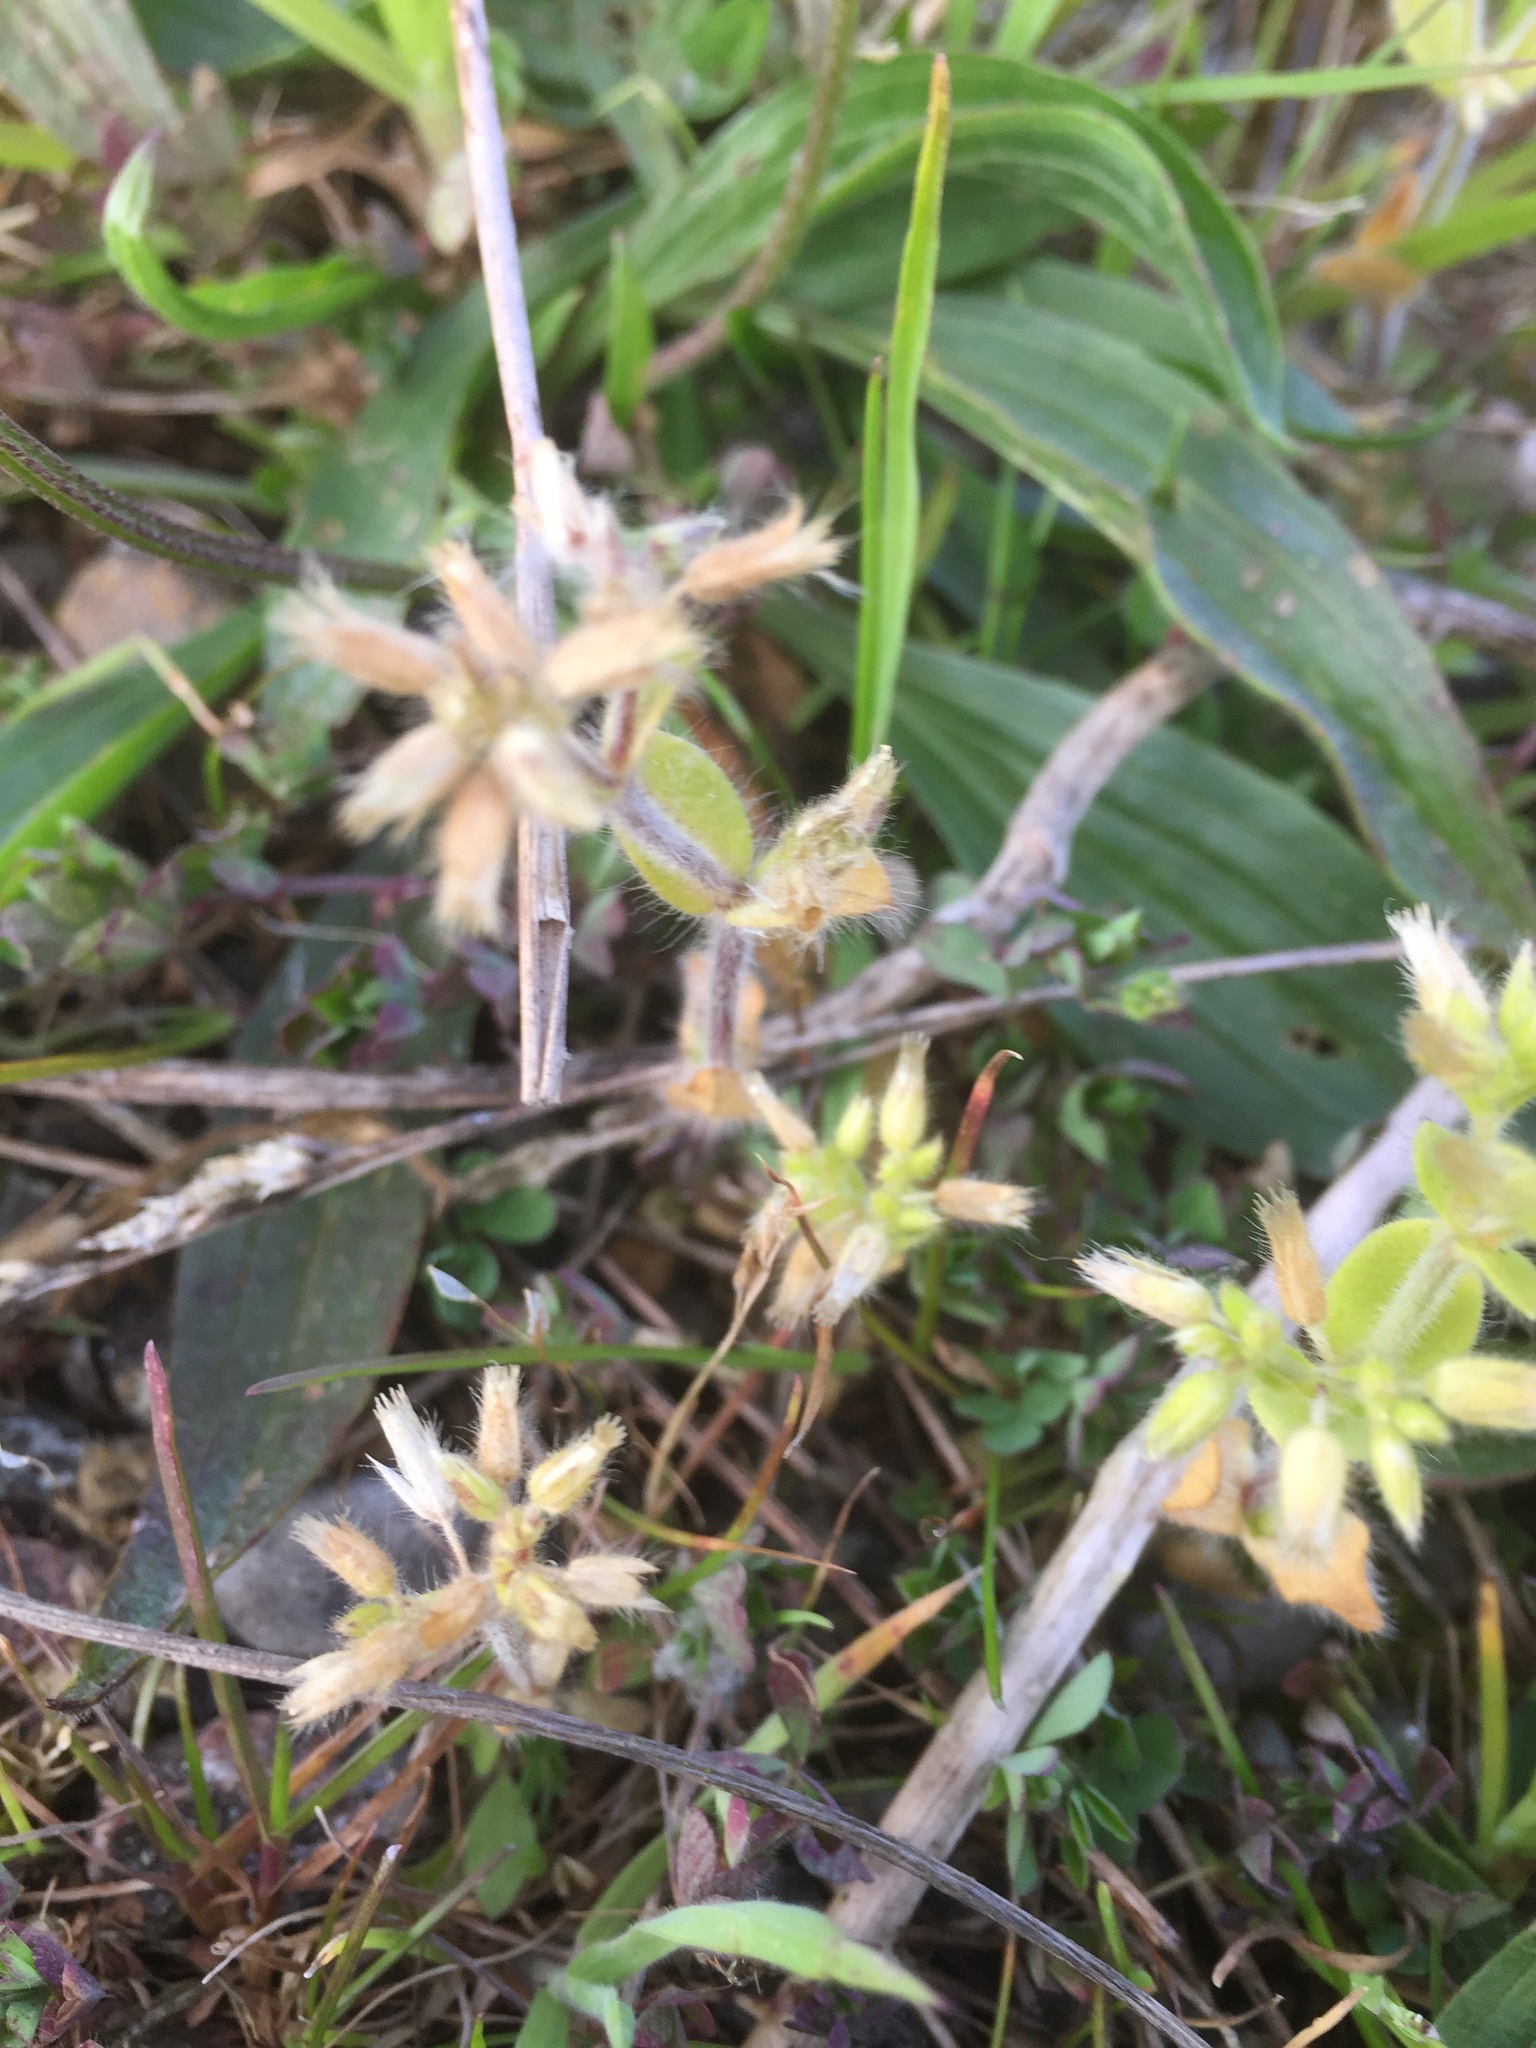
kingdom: Plantae
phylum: Tracheophyta
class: Magnoliopsida
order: Caryophyllales
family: Caryophyllaceae
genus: Cerastium
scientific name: Cerastium glomeratum
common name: Sticky chickweed
